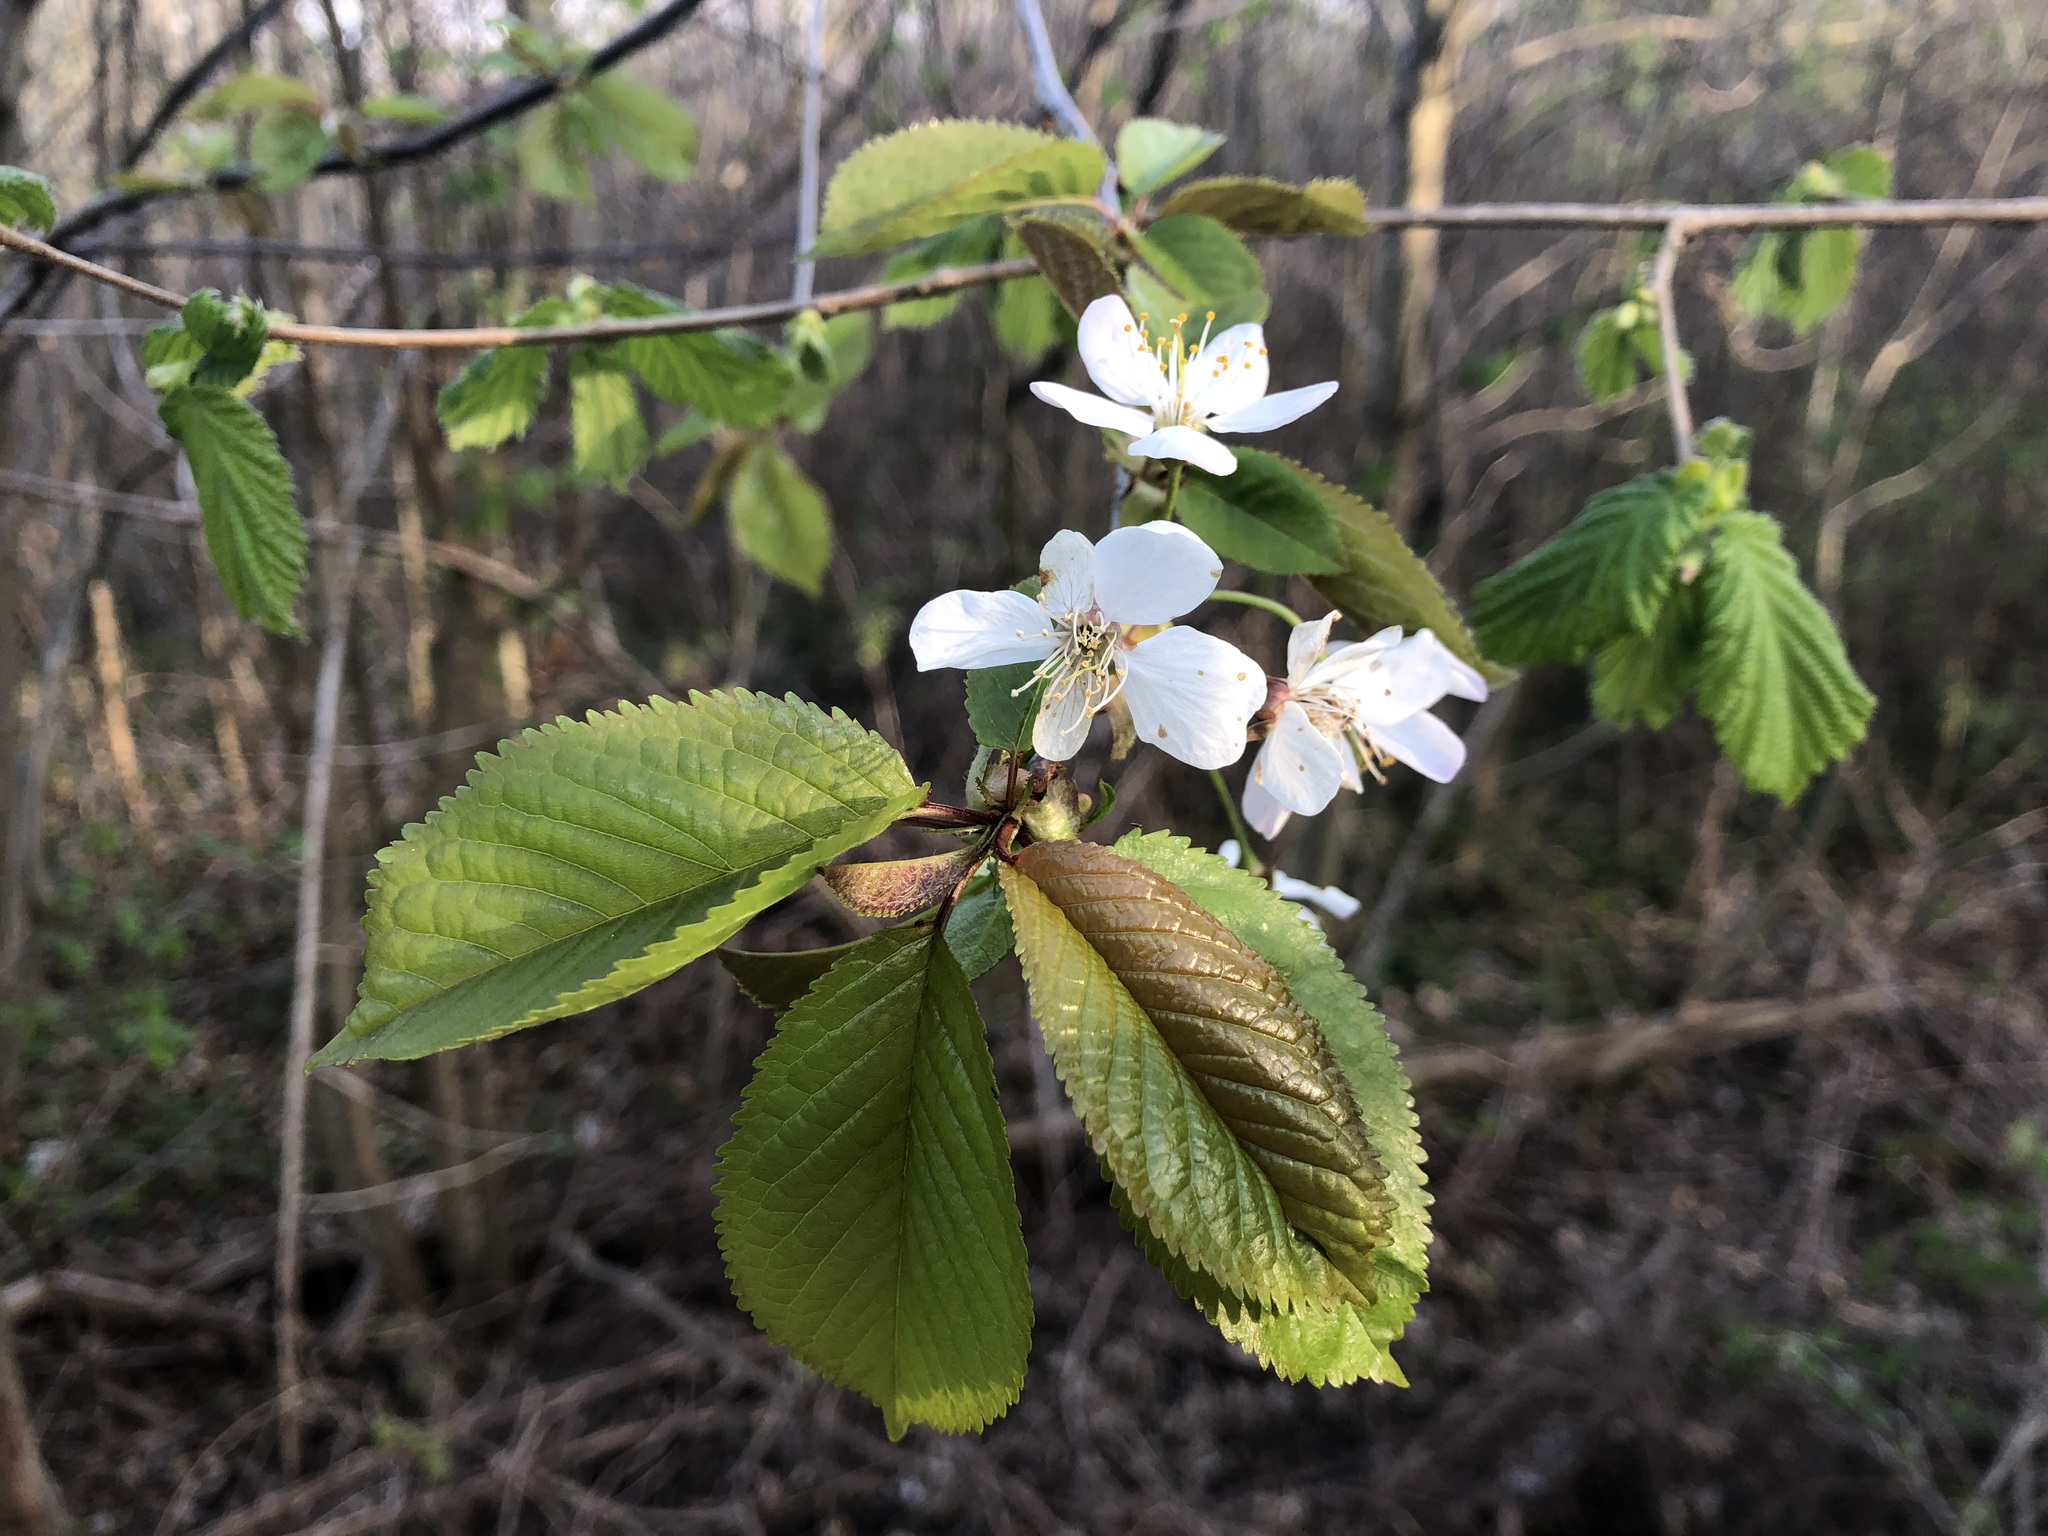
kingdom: Plantae
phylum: Tracheophyta
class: Magnoliopsida
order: Rosales
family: Rosaceae
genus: Prunus
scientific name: Prunus avium
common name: Sweet cherry
